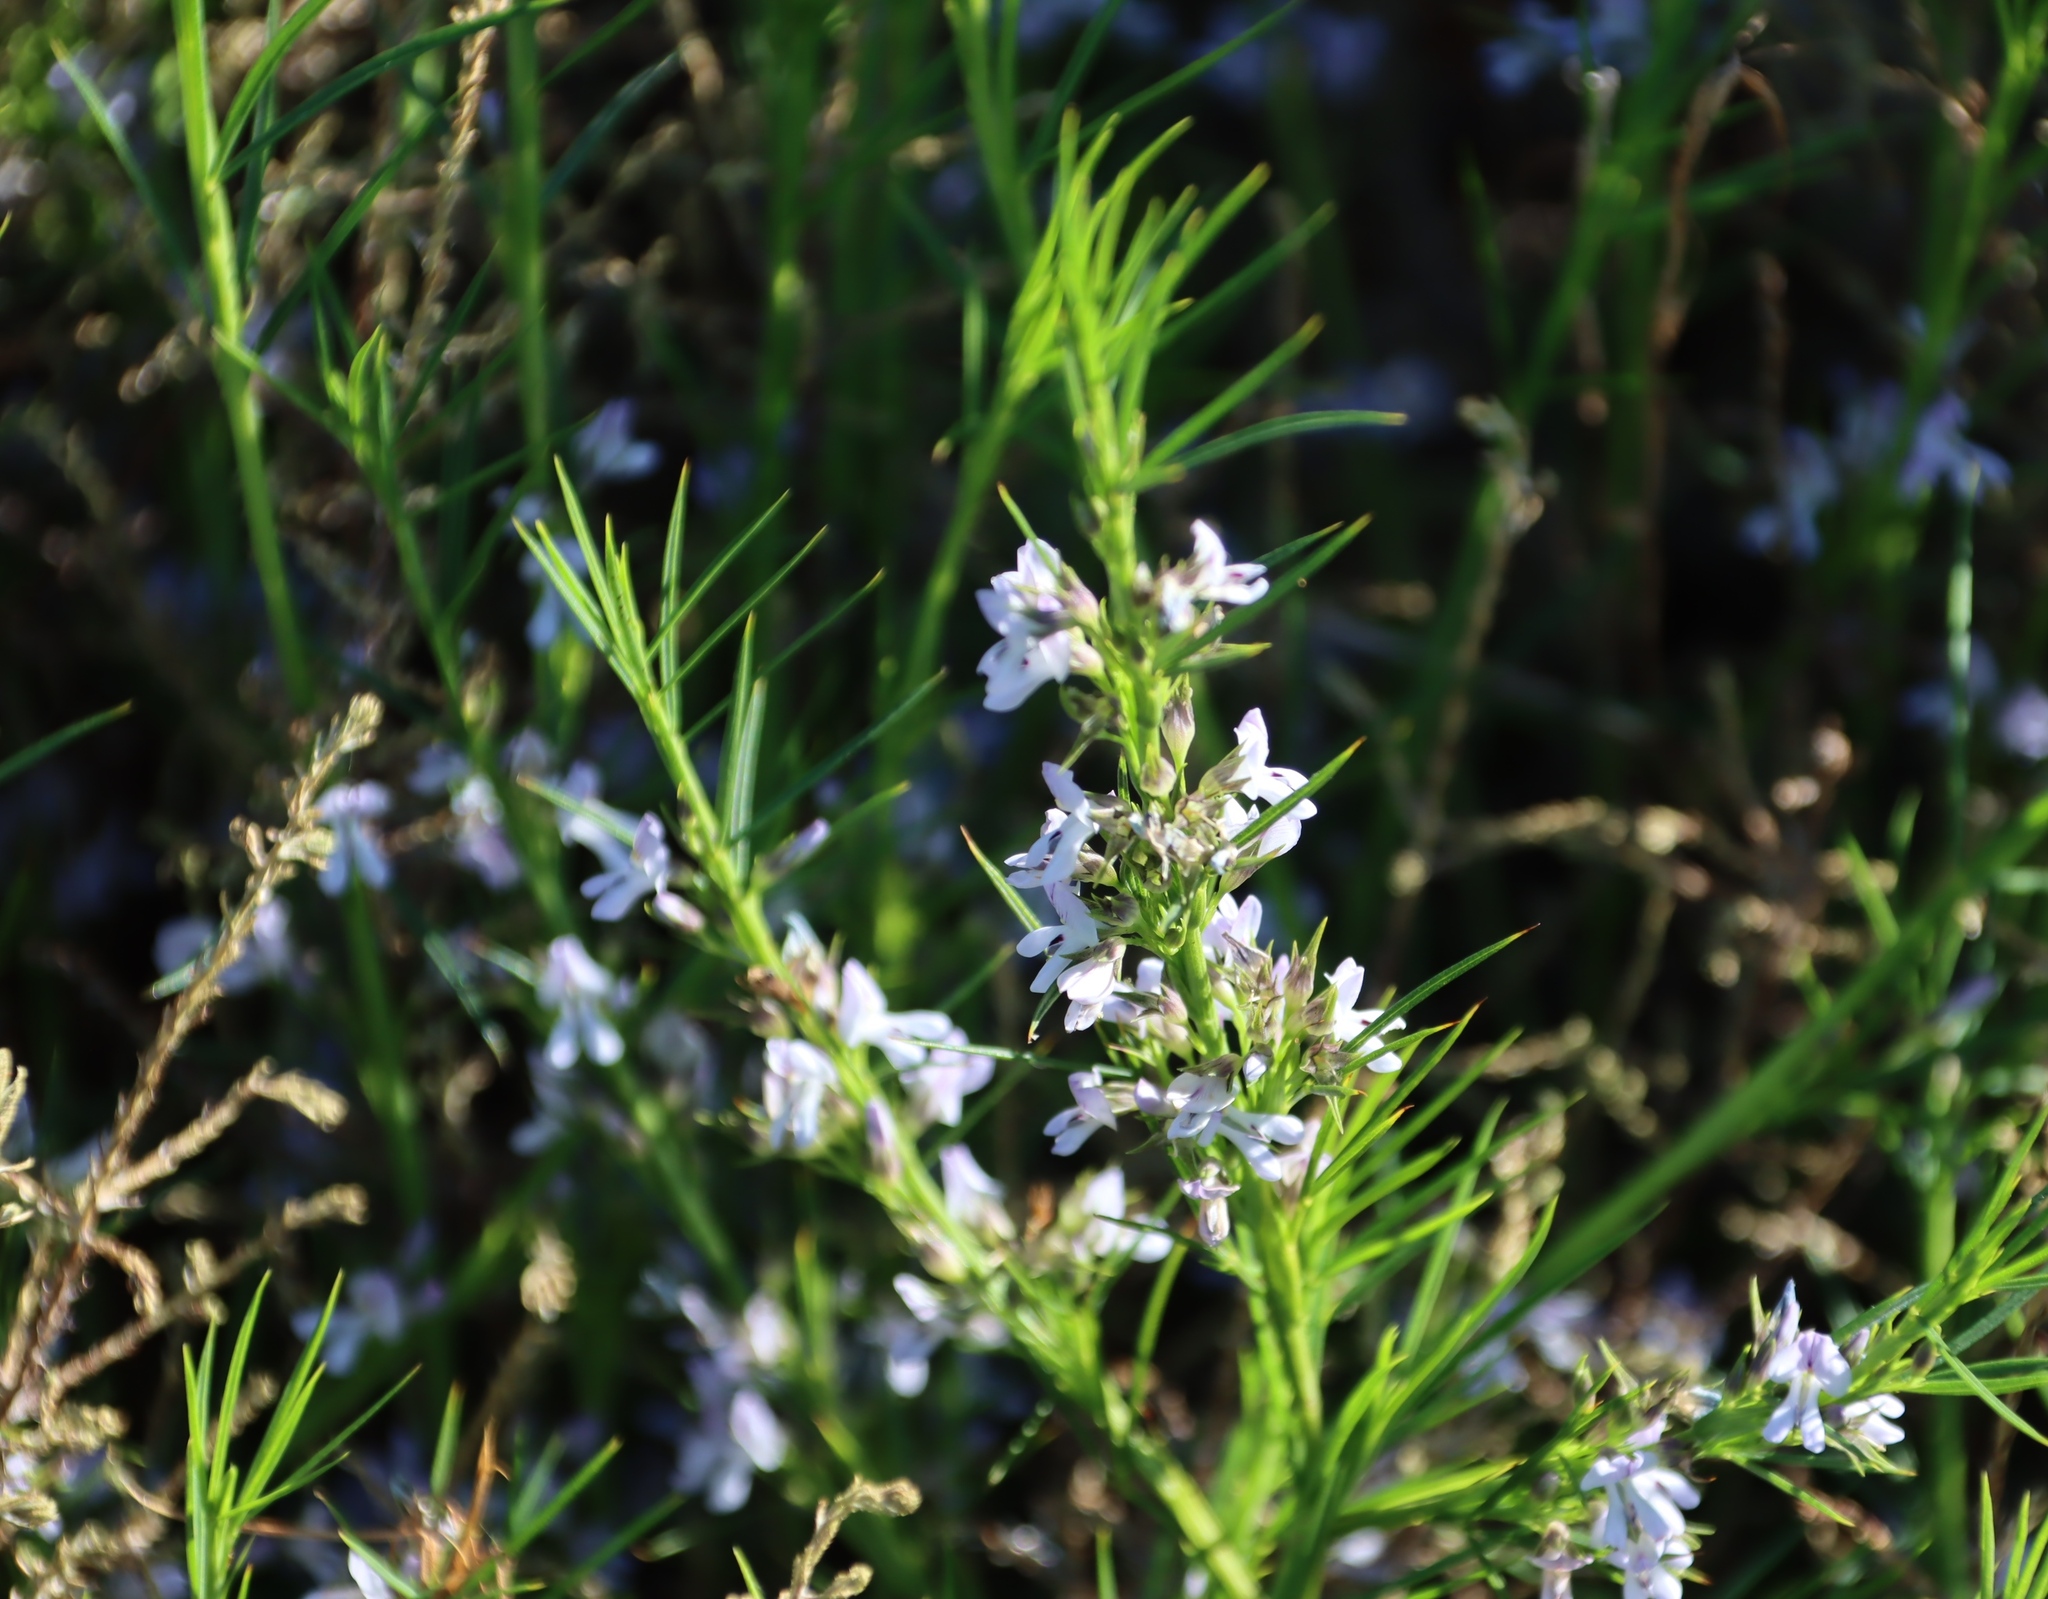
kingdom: Plantae
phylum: Tracheophyta
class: Magnoliopsida
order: Fabales
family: Fabaceae
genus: Psoralea
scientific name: Psoralea fascicularis
